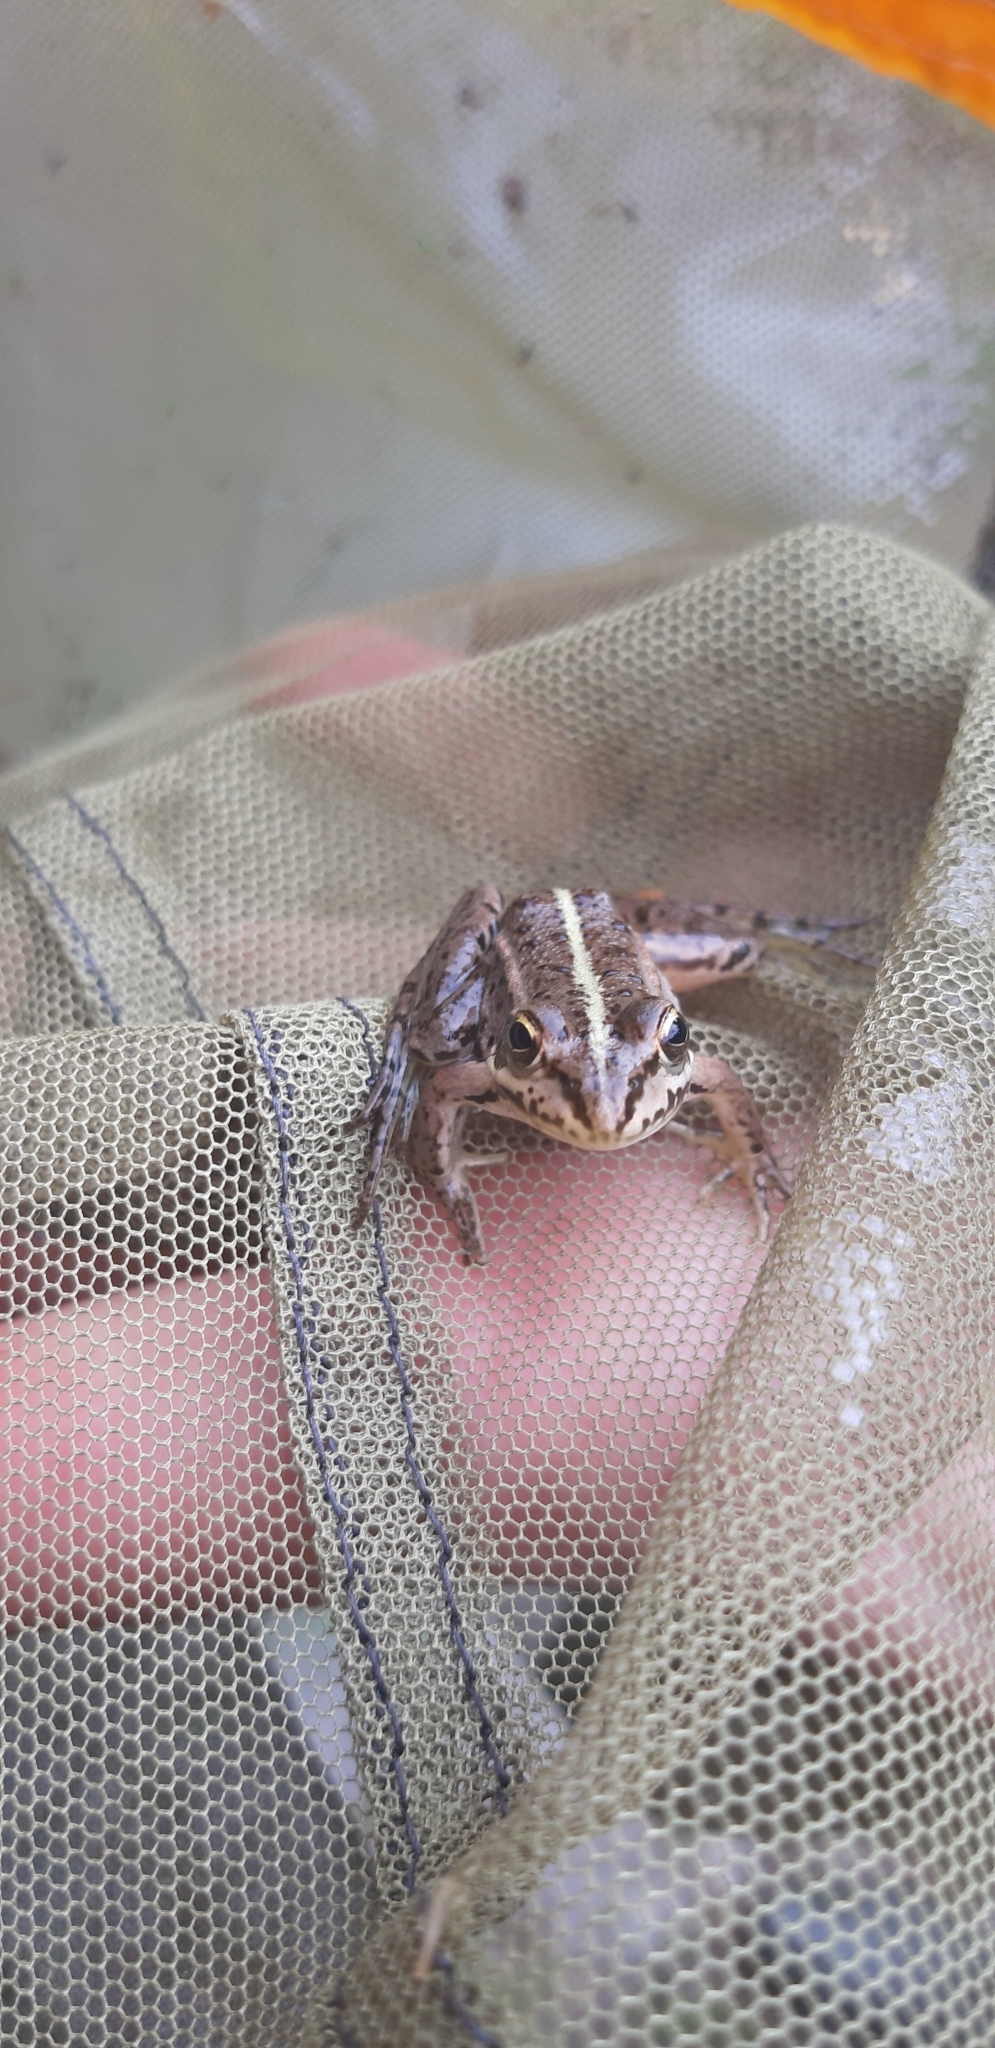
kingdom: Animalia
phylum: Chordata
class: Amphibia
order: Anura
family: Ranidae
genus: Pelophylax
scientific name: Pelophylax
